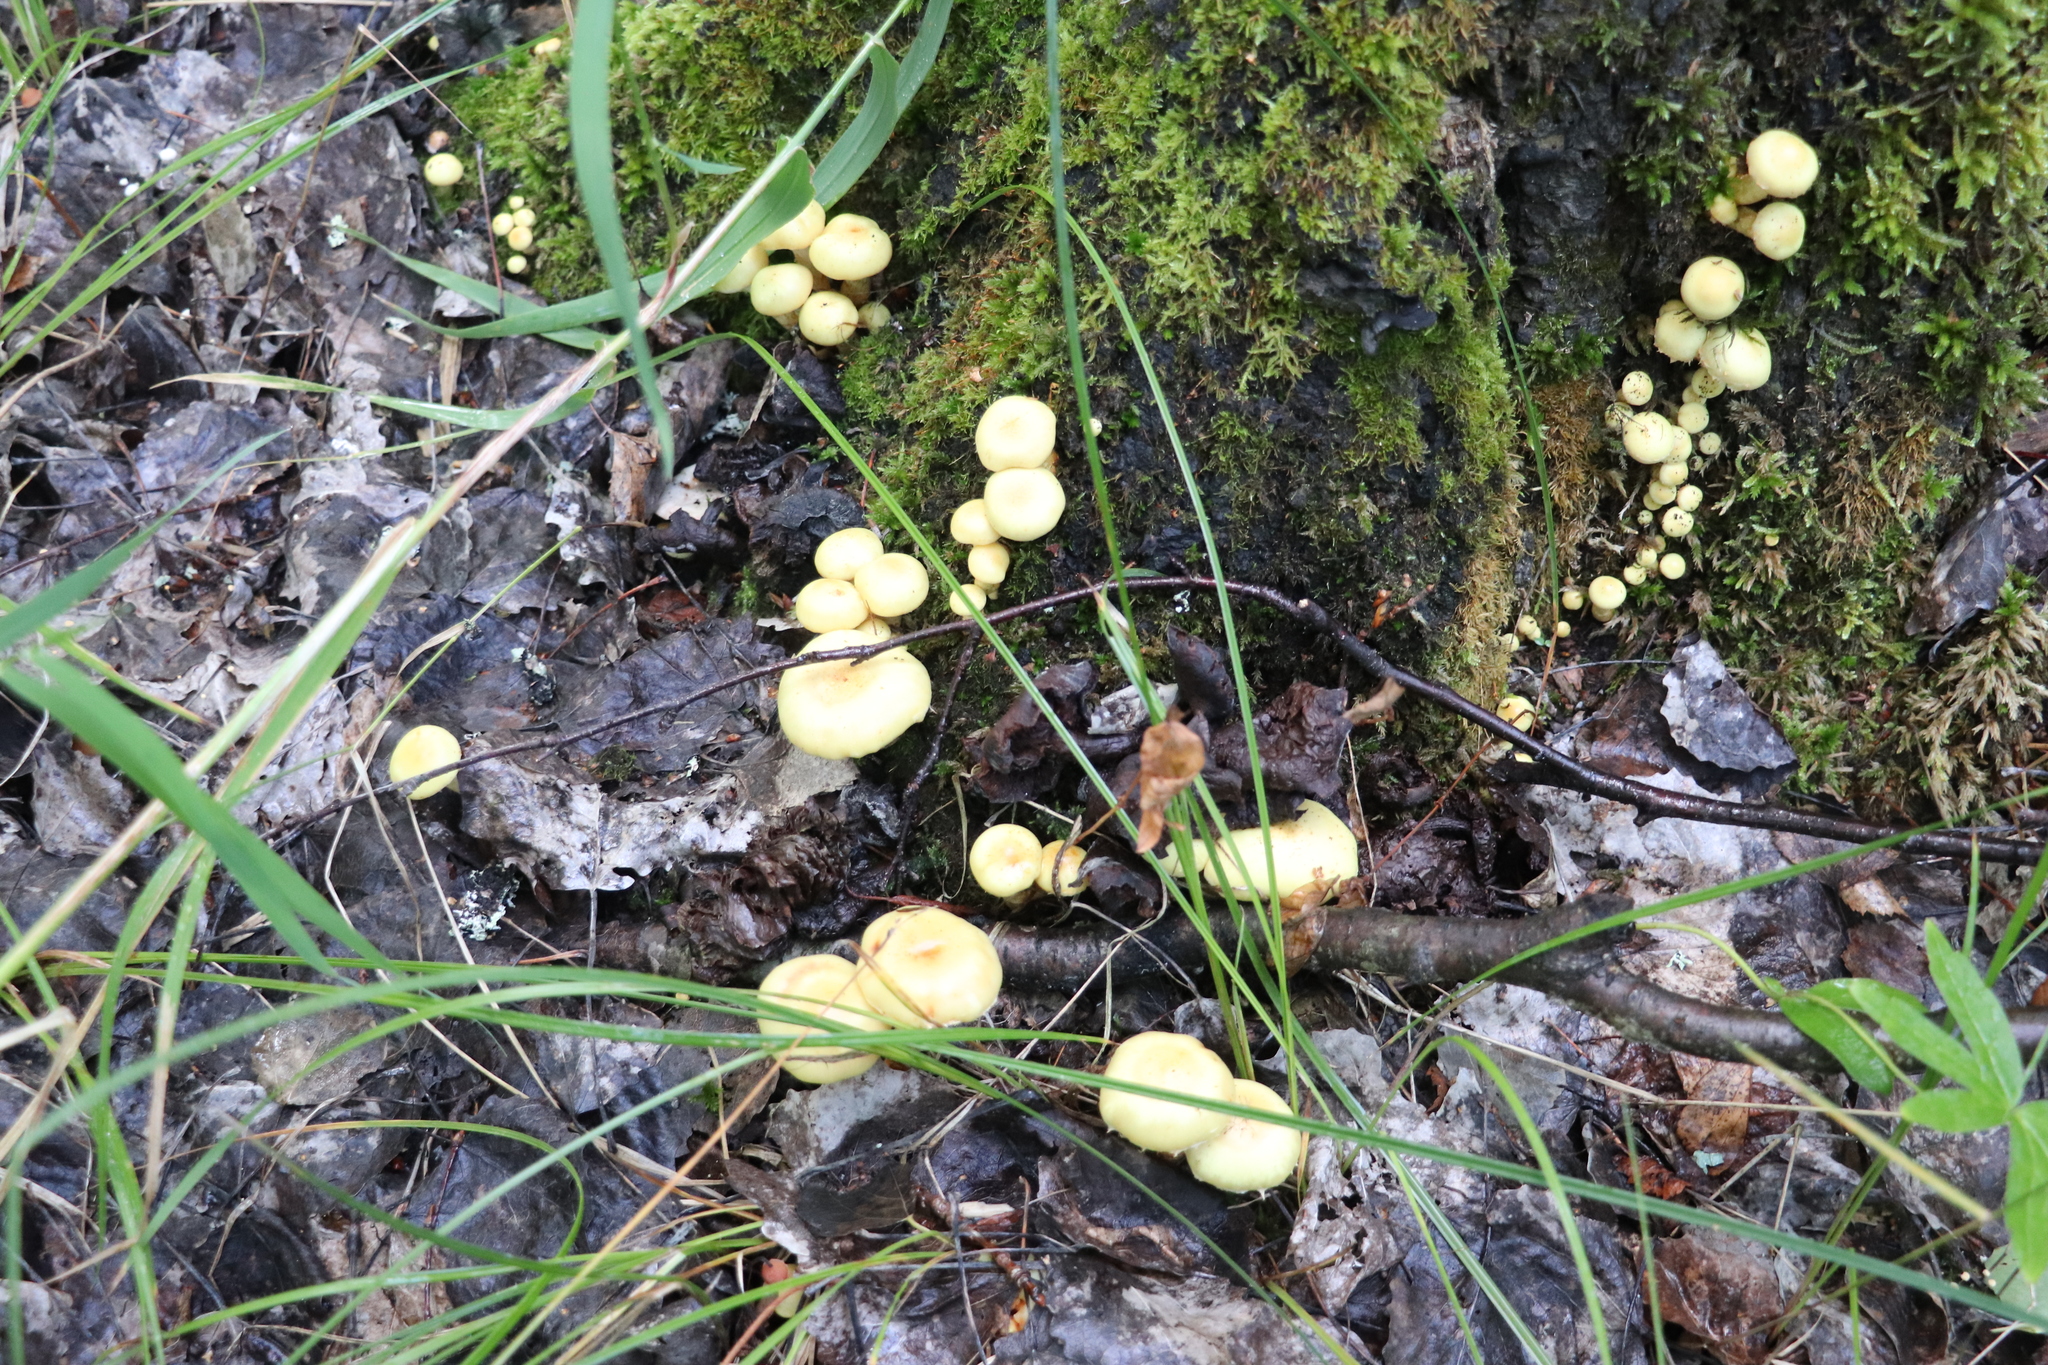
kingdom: Fungi
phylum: Basidiomycota
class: Agaricomycetes
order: Agaricales
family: Hymenogastraceae
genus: Flammula
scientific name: Flammula alnicola
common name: Alder scalycap
